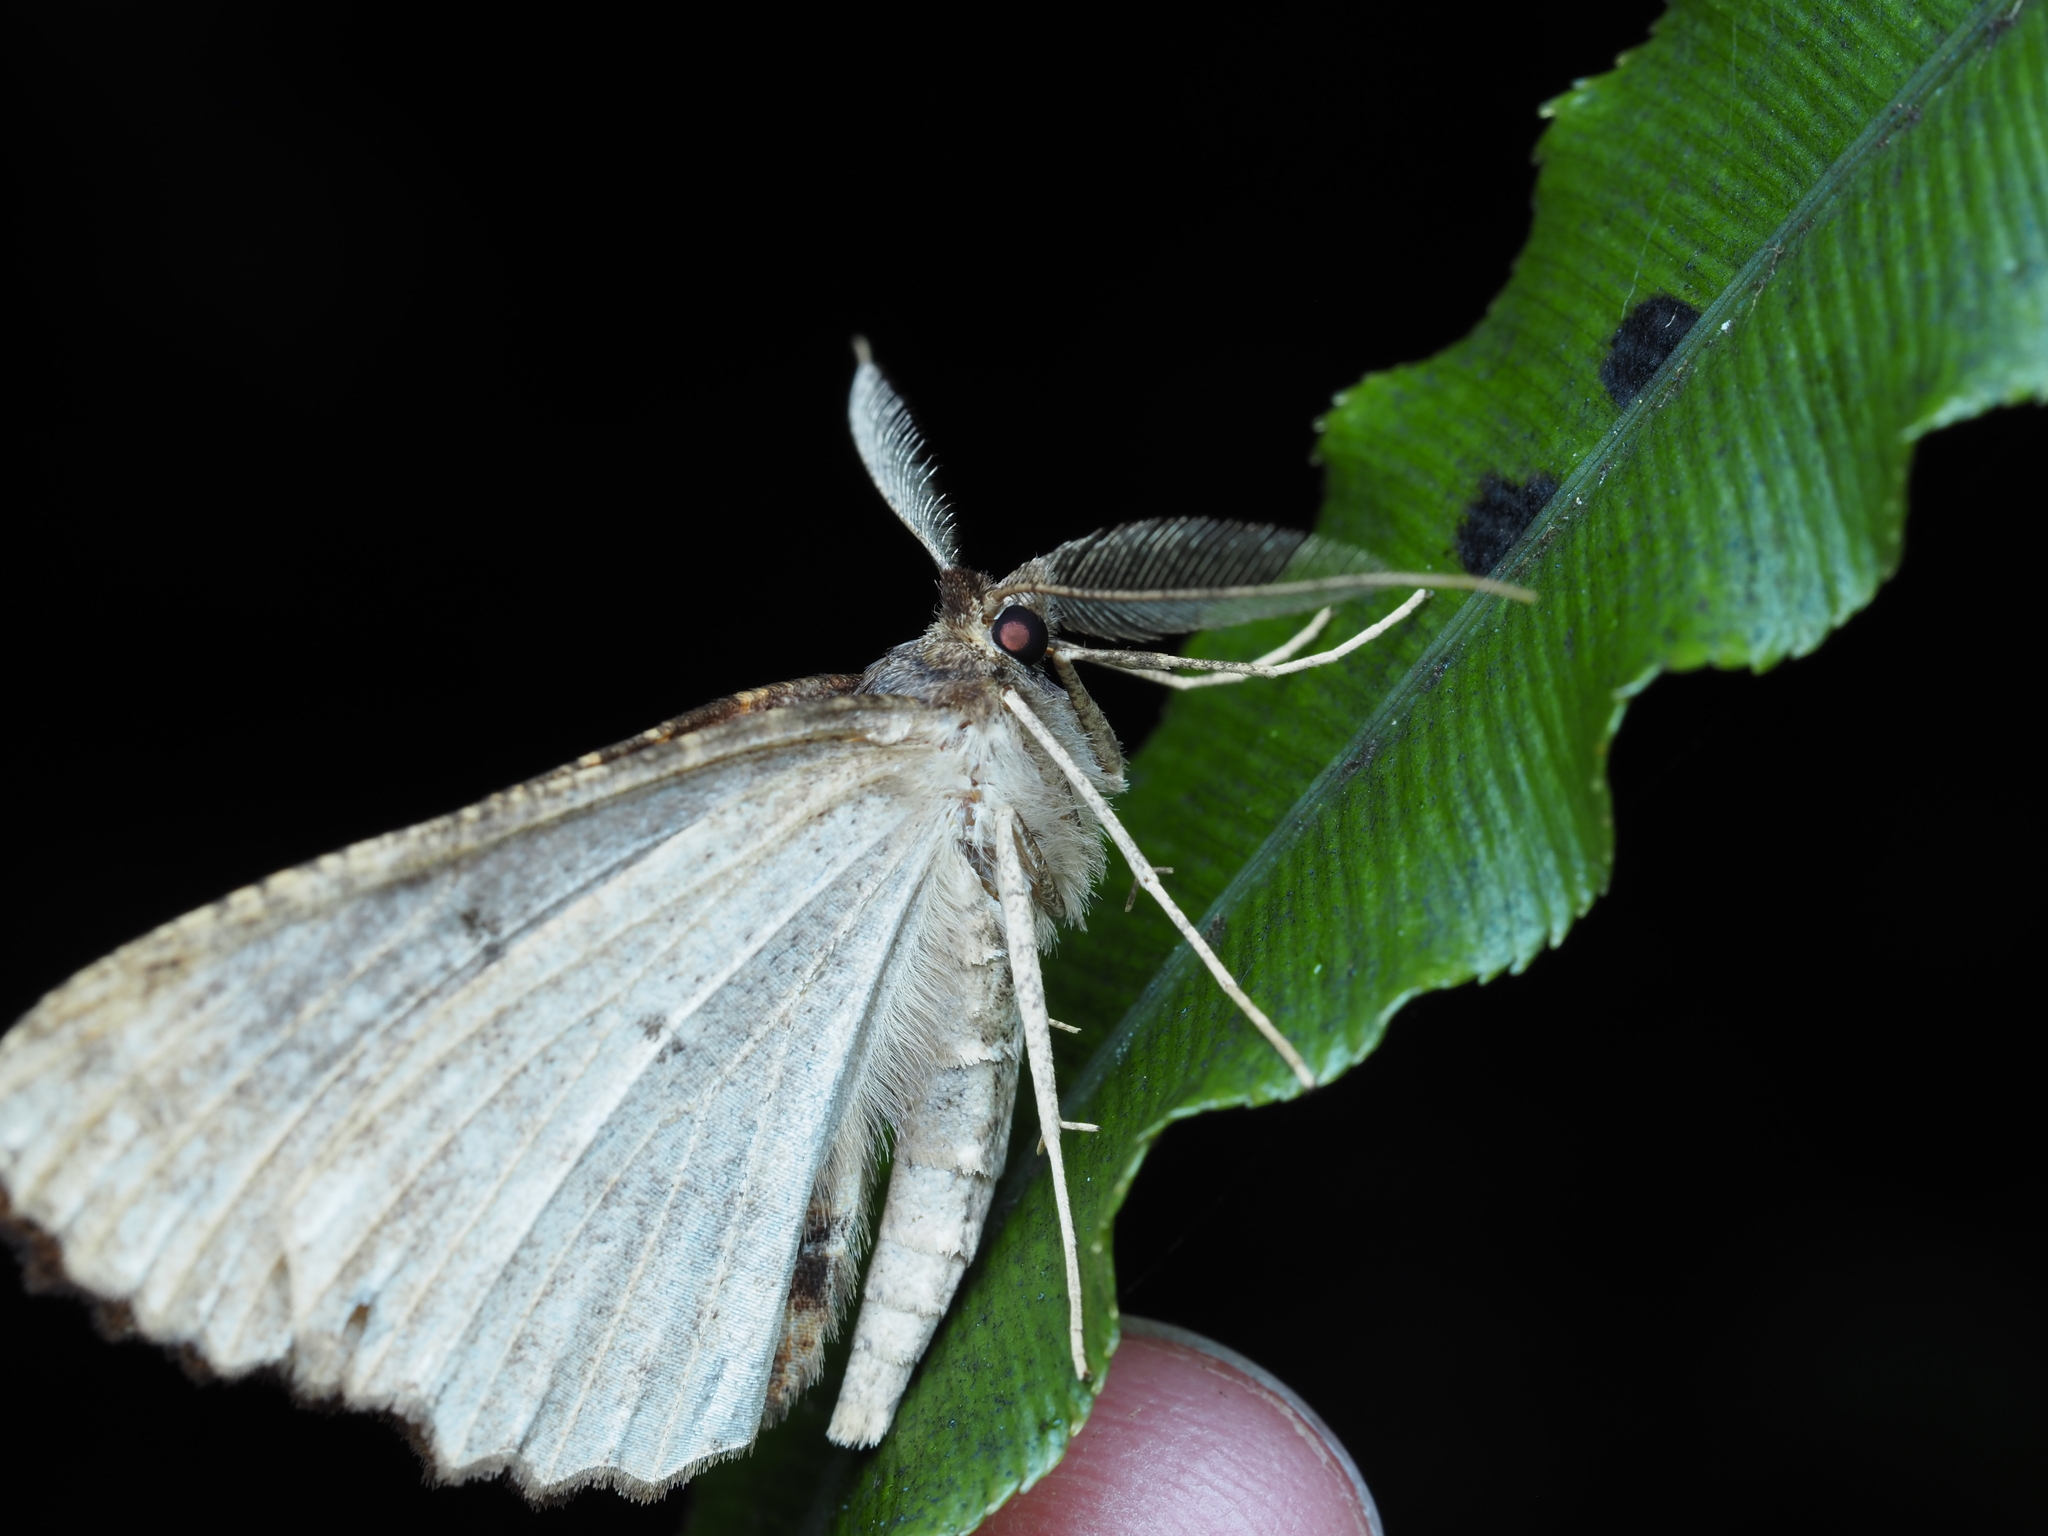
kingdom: Animalia
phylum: Arthropoda
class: Insecta
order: Lepidoptera
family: Geometridae
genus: Cleora
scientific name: Cleora scriptaria
